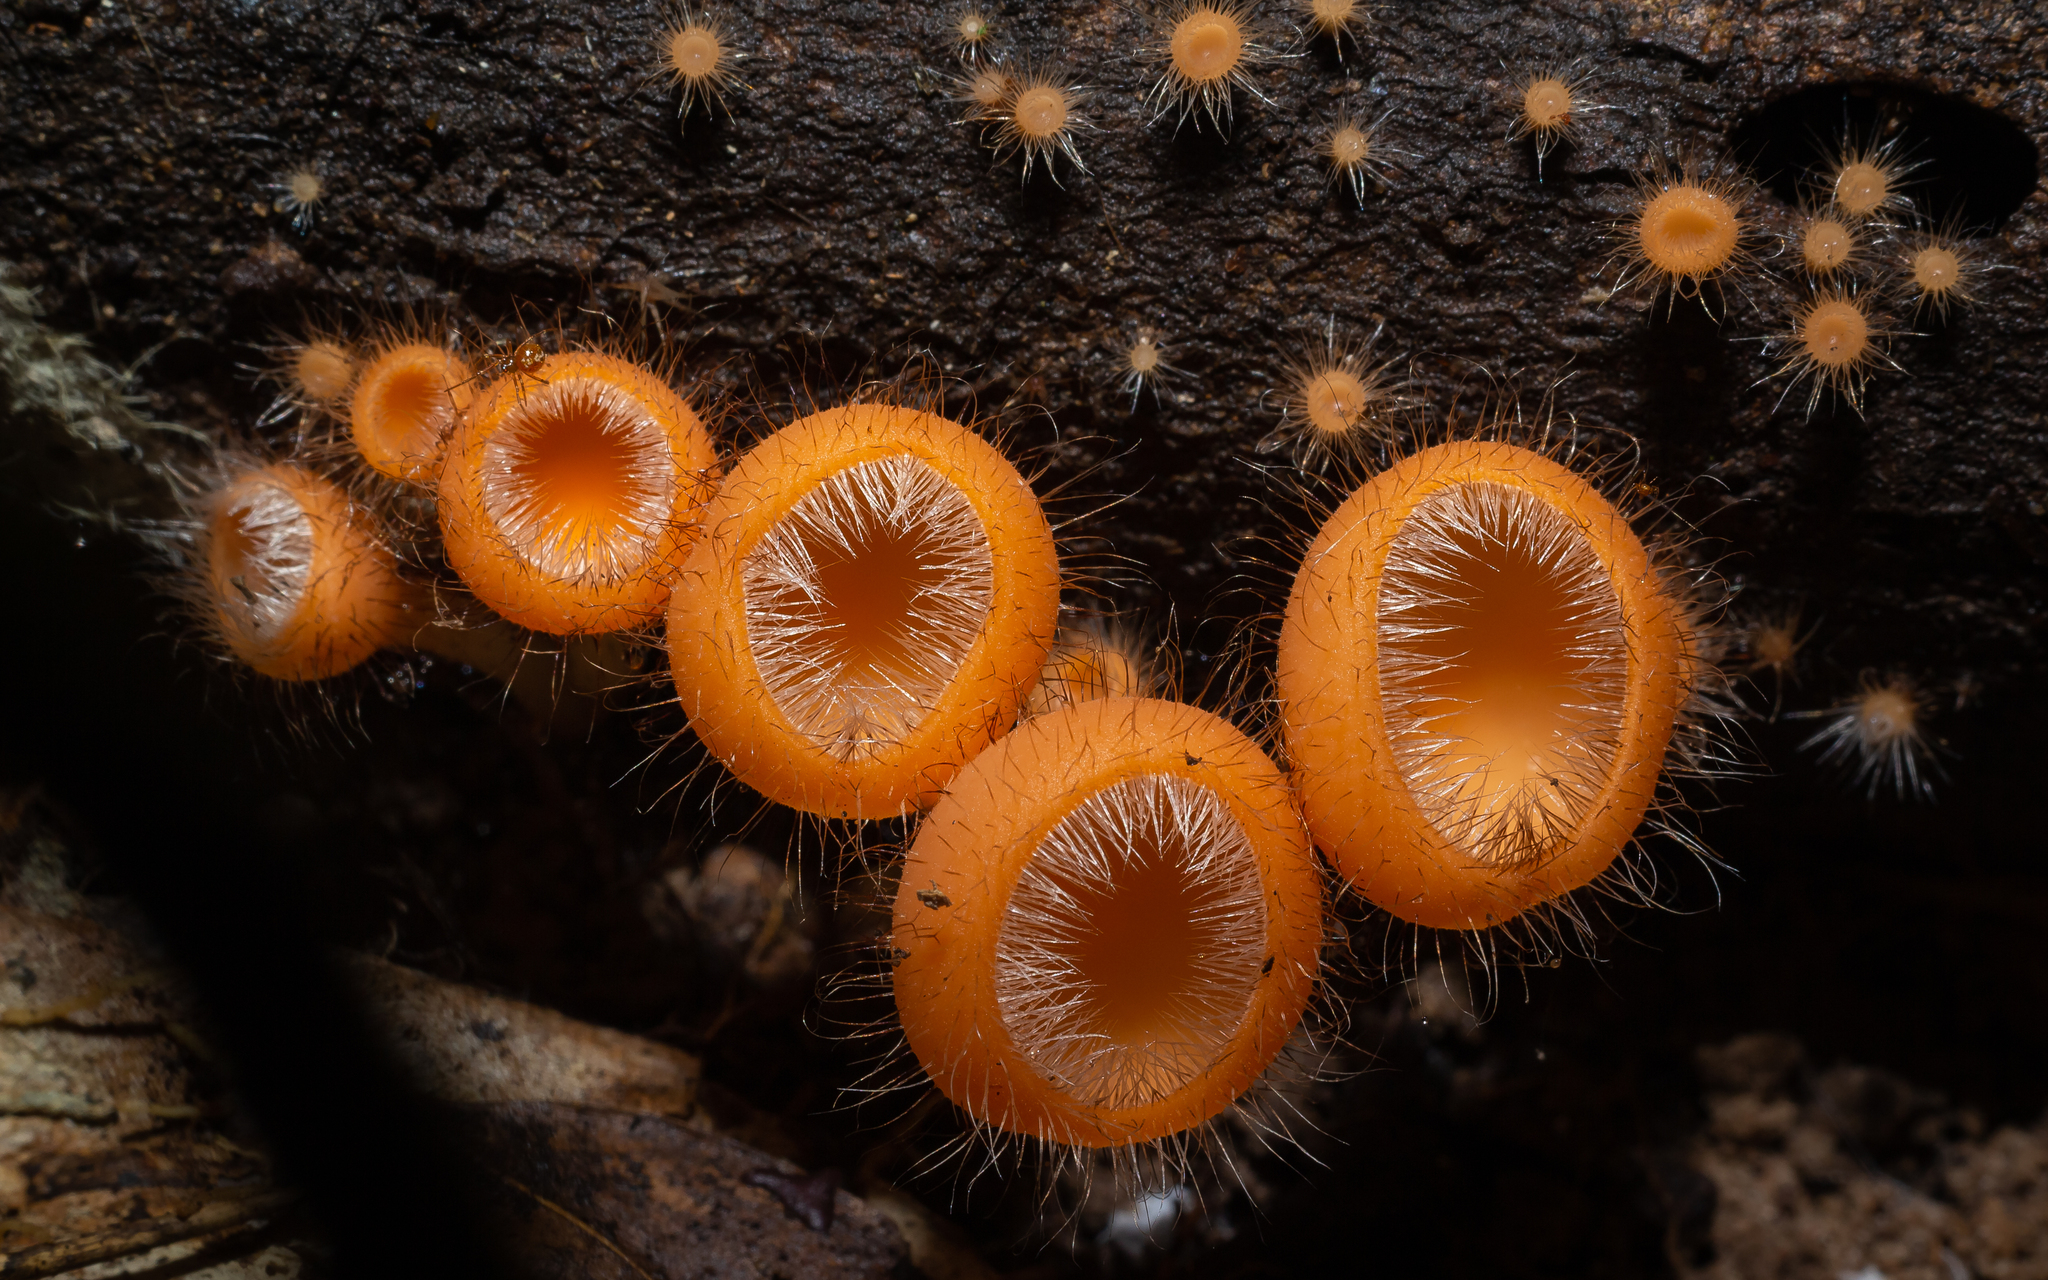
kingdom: Fungi
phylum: Ascomycota
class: Pezizomycetes
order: Pezizales
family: Sarcoscyphaceae
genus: Cookeina
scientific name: Cookeina tricholoma
